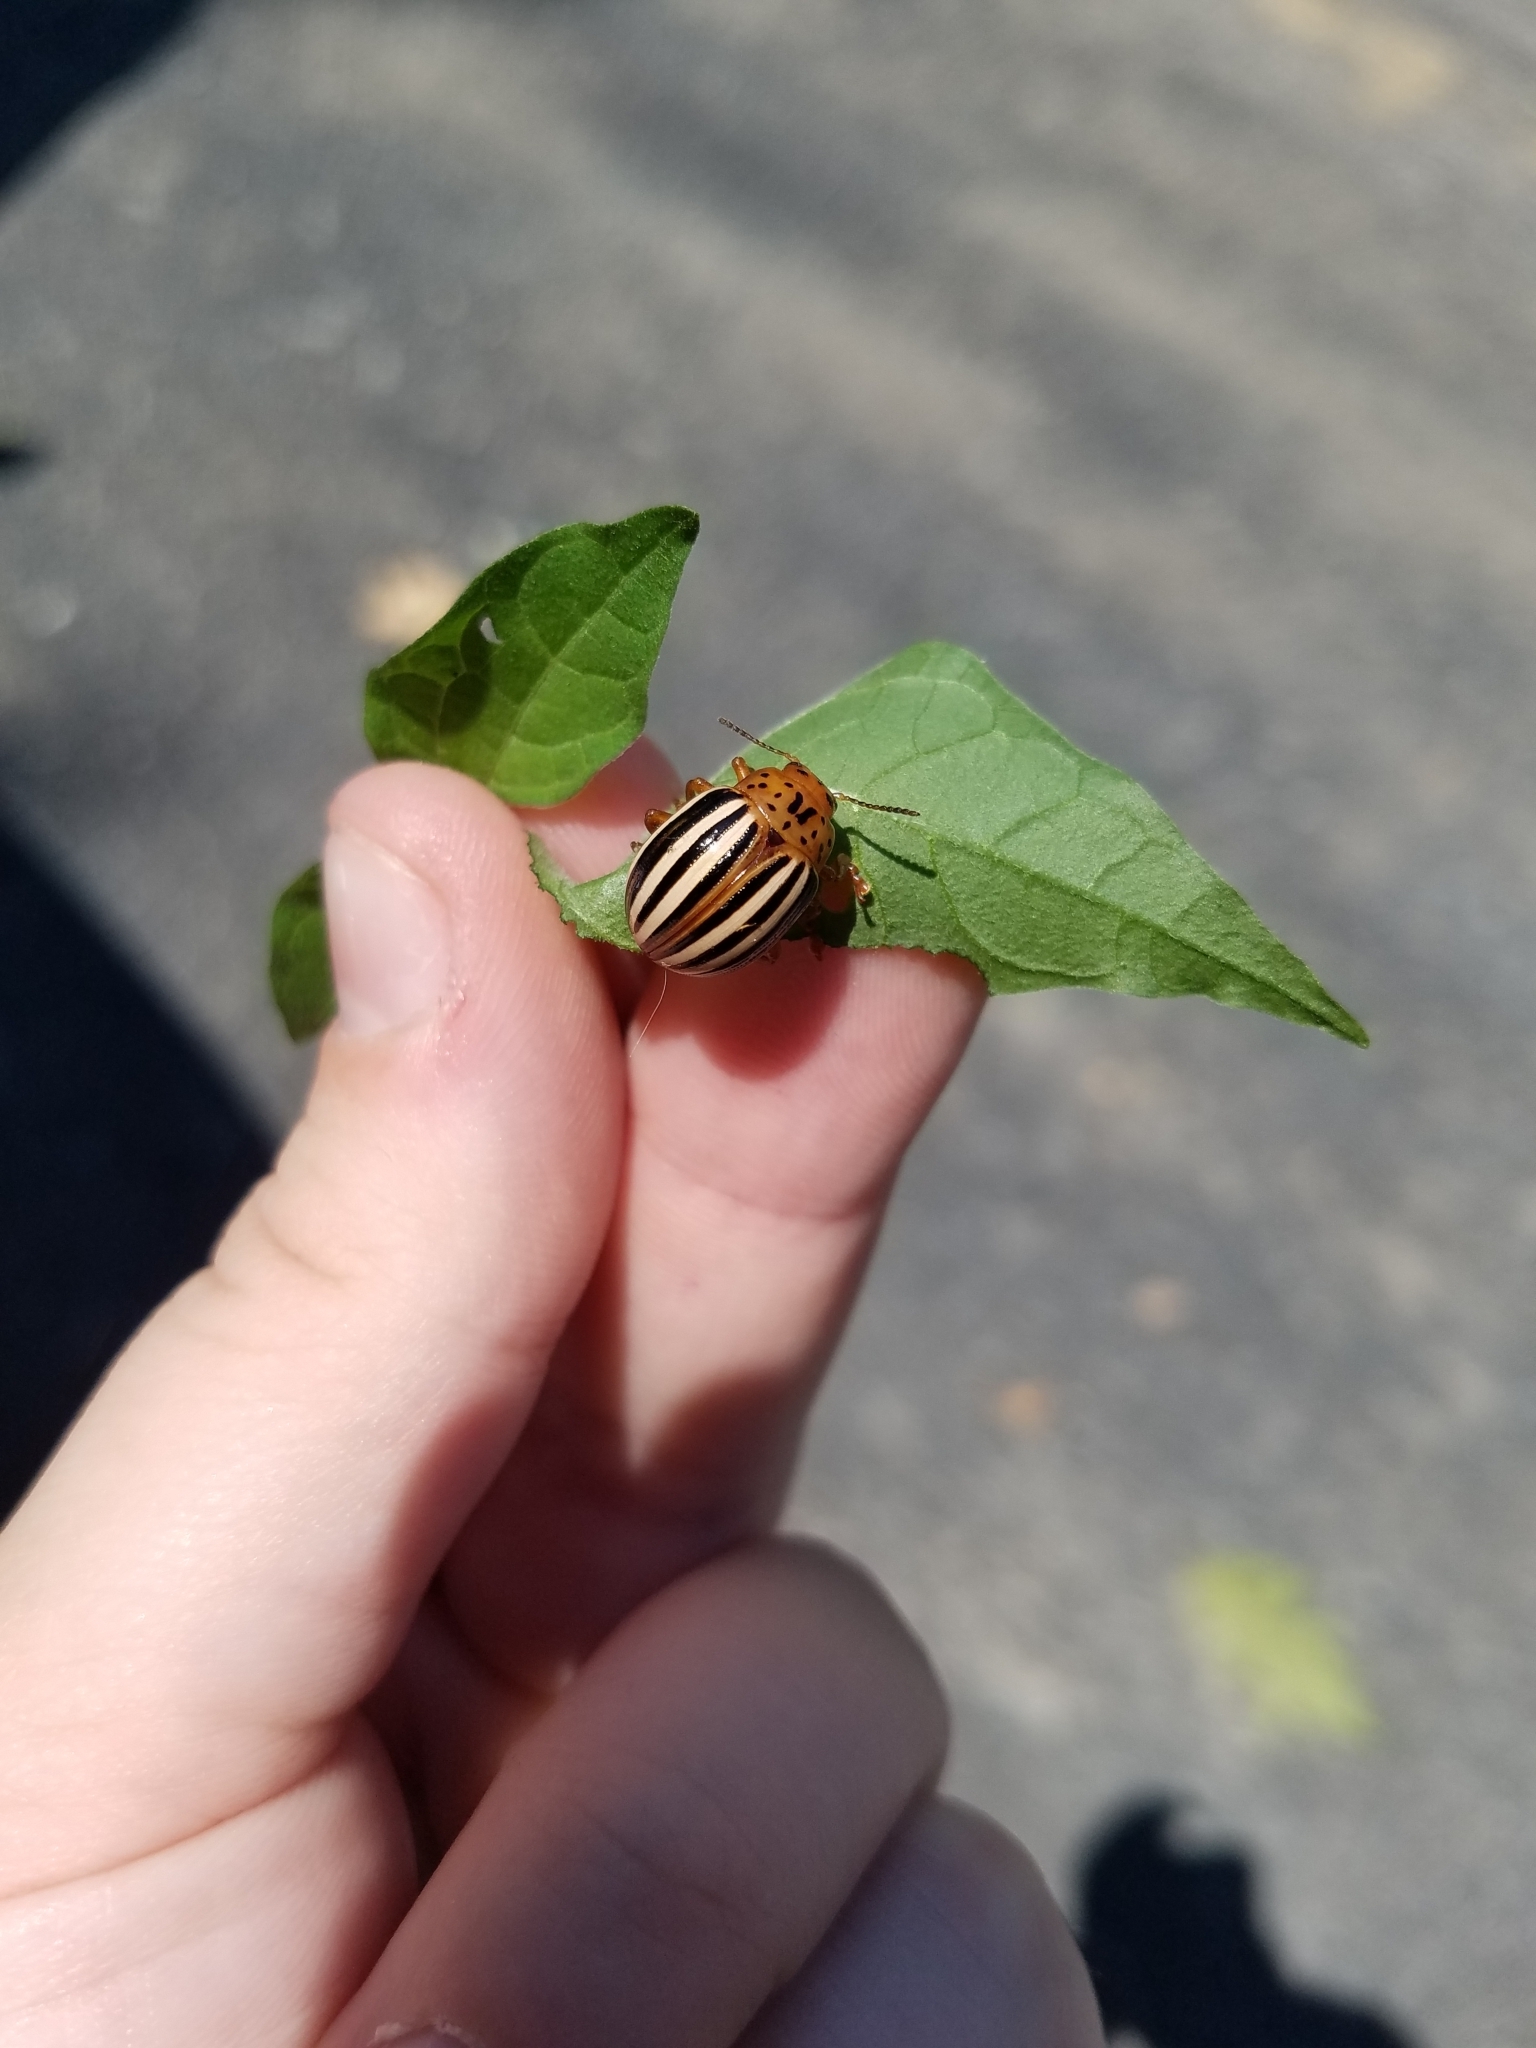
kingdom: Animalia
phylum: Arthropoda
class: Insecta
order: Coleoptera
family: Chrysomelidae
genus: Leptinotarsa
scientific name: Leptinotarsa juncta
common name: False potato beetle
